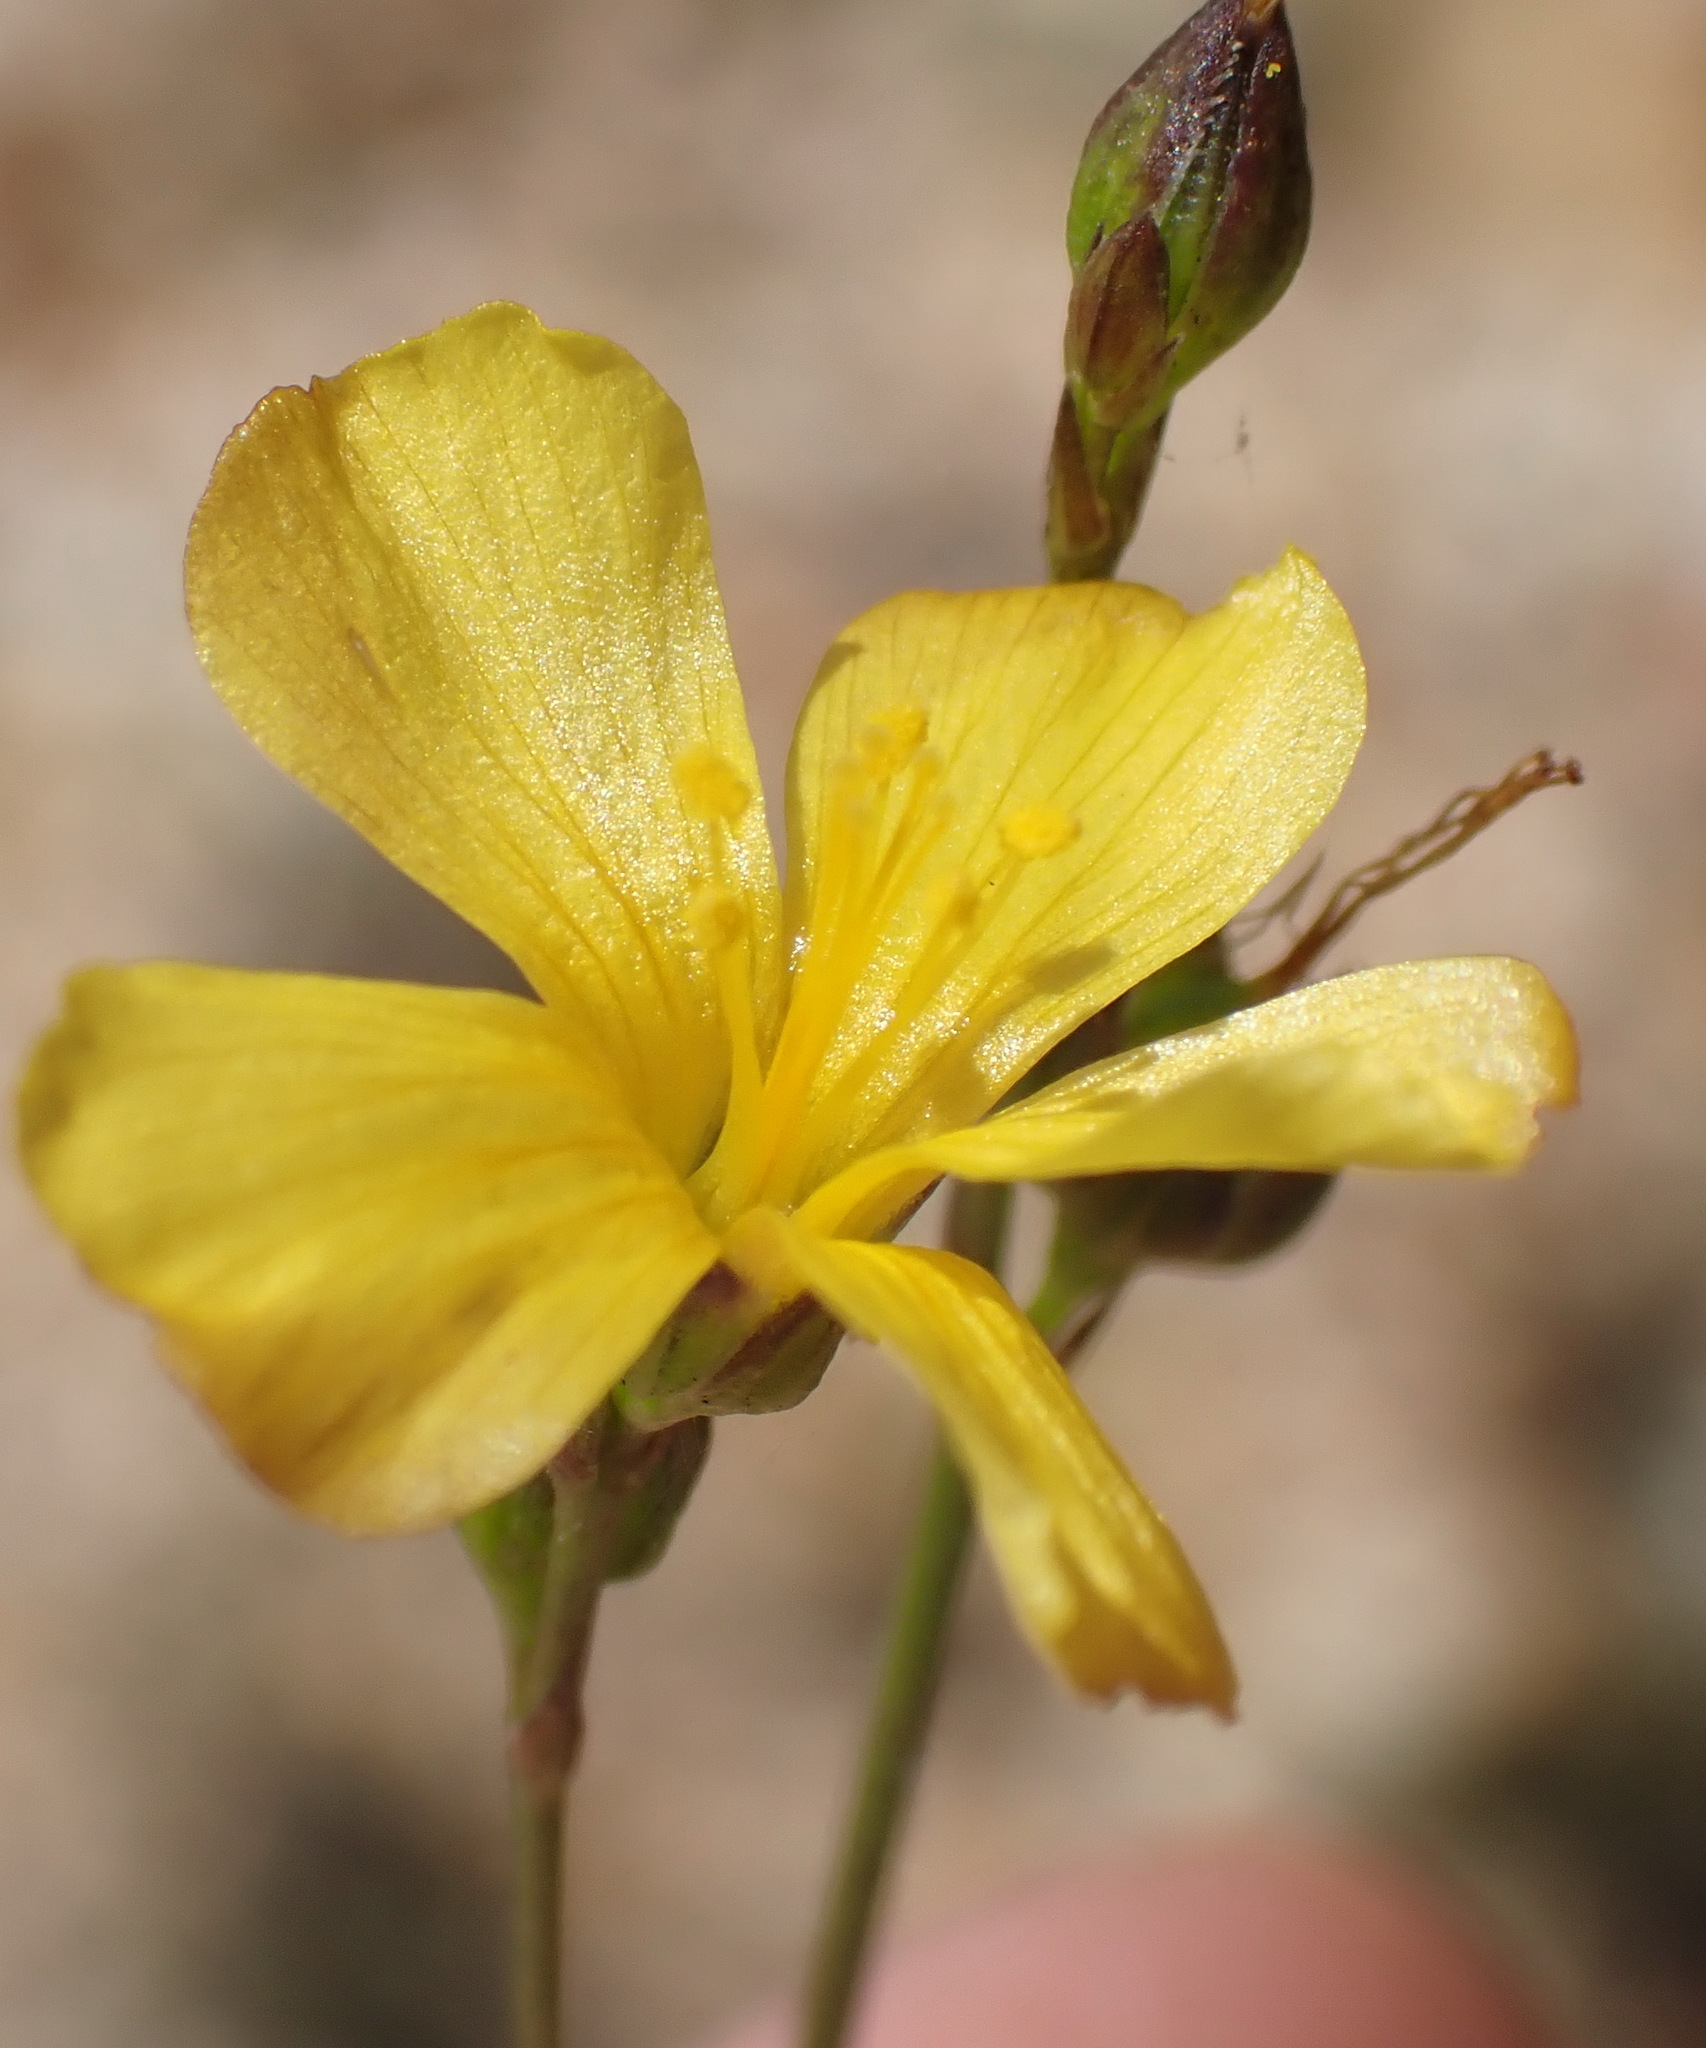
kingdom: Plantae
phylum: Tracheophyta
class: Magnoliopsida
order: Malpighiales
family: Linaceae
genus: Linum
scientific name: Linum africanum
